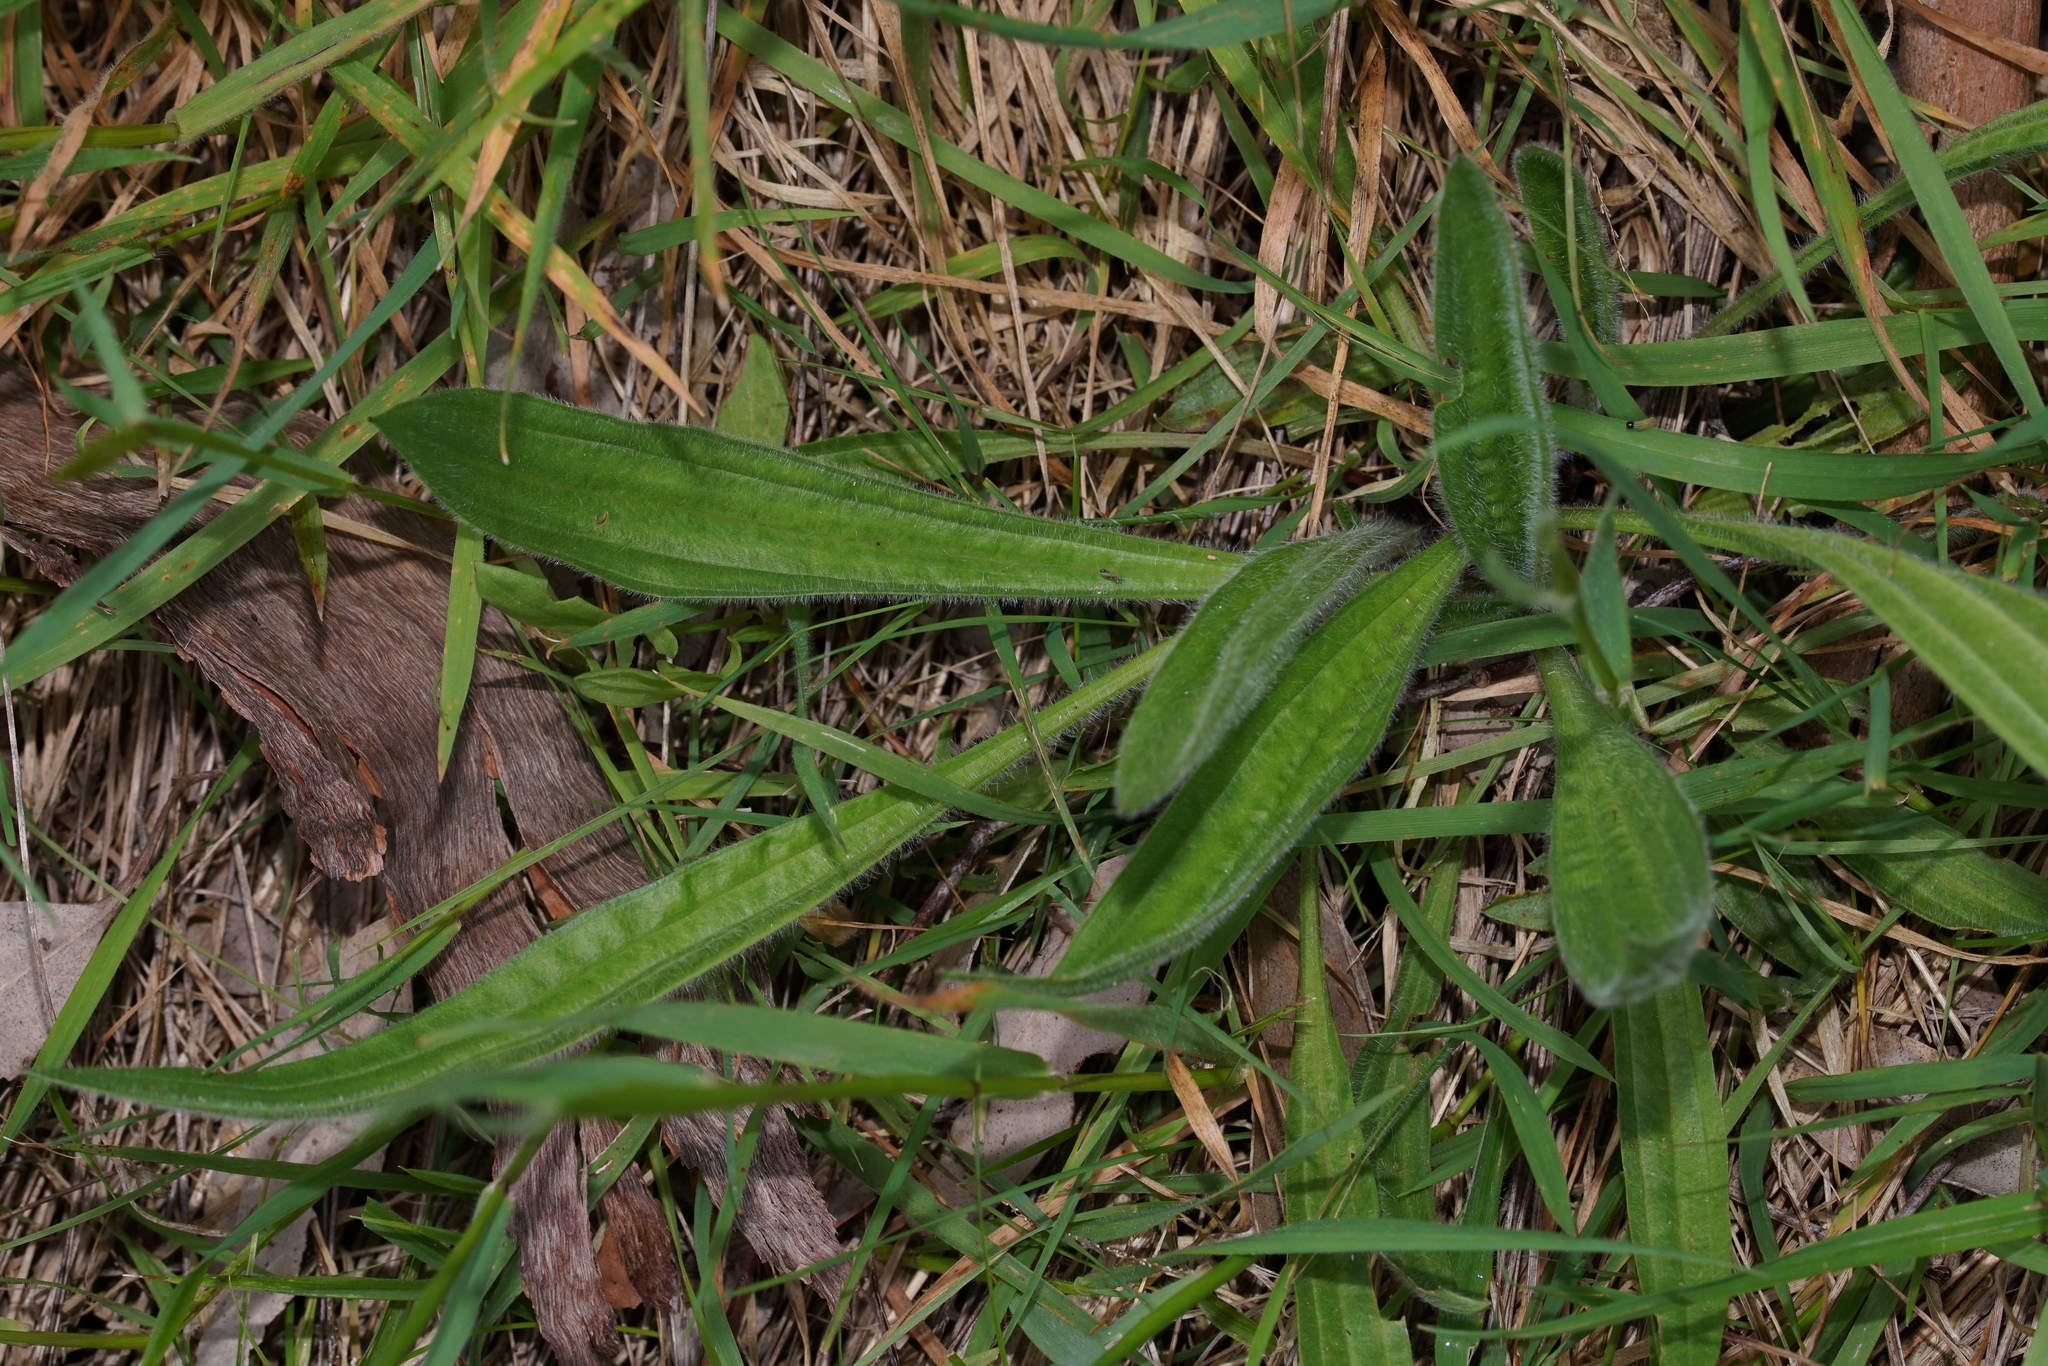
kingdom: Plantae
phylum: Tracheophyta
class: Magnoliopsida
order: Lamiales
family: Plantaginaceae
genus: Plantago
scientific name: Plantago lanceolata
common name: Ribwort plantain
